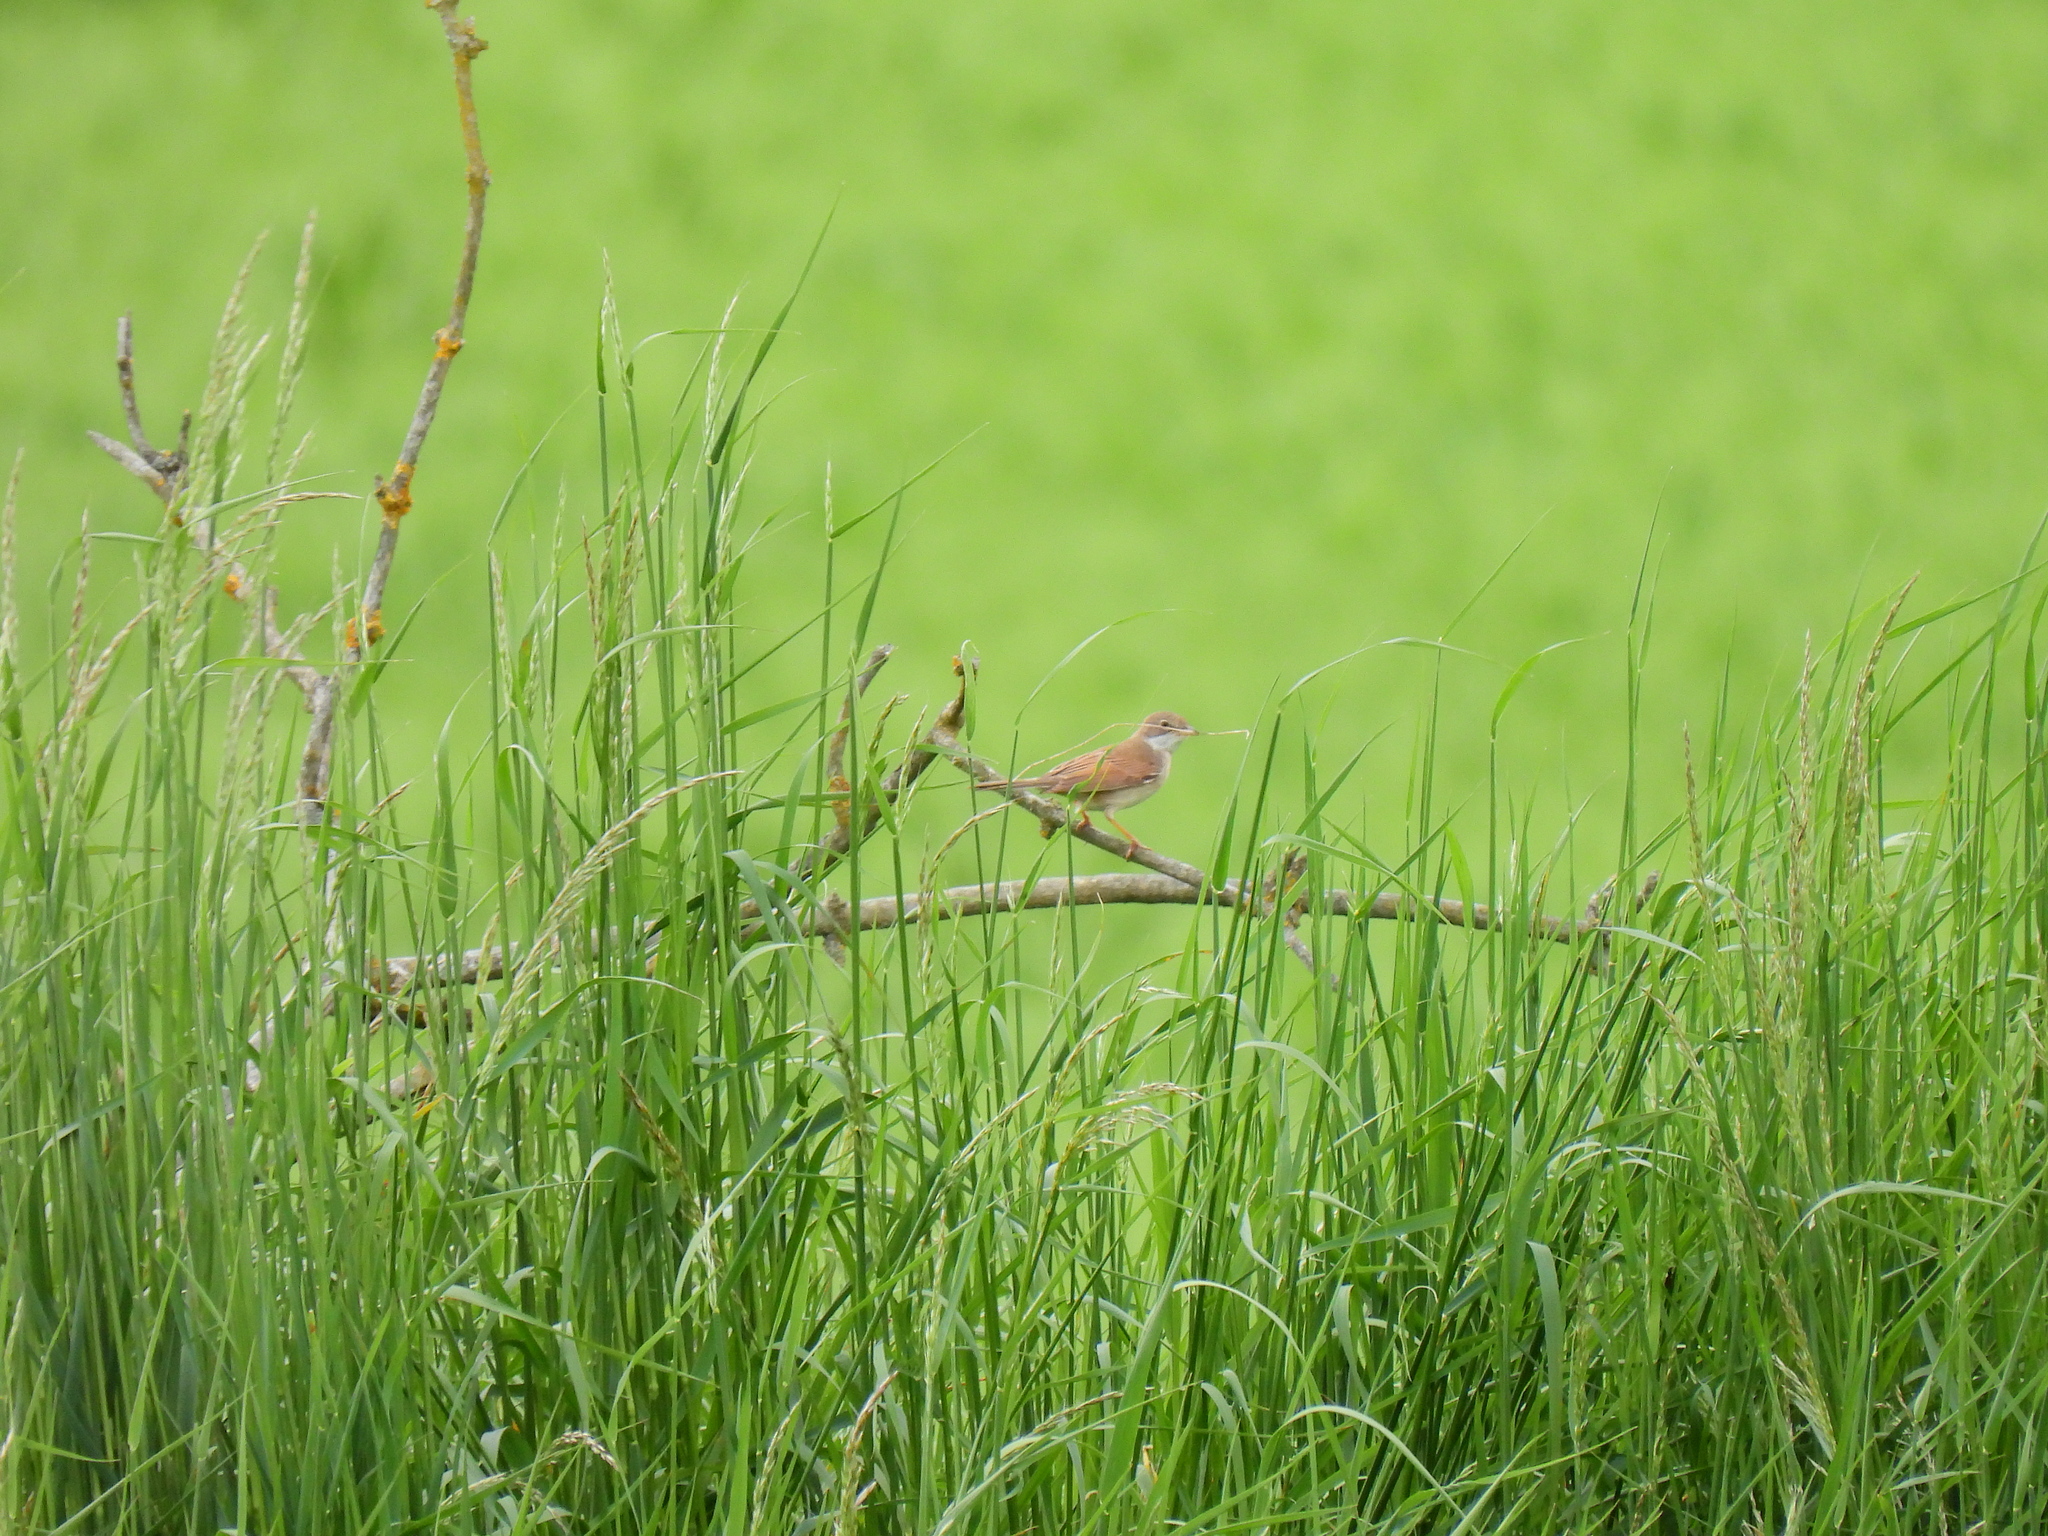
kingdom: Animalia
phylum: Chordata
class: Aves
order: Passeriformes
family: Sylviidae
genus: Sylvia
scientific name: Sylvia communis
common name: Common whitethroat
